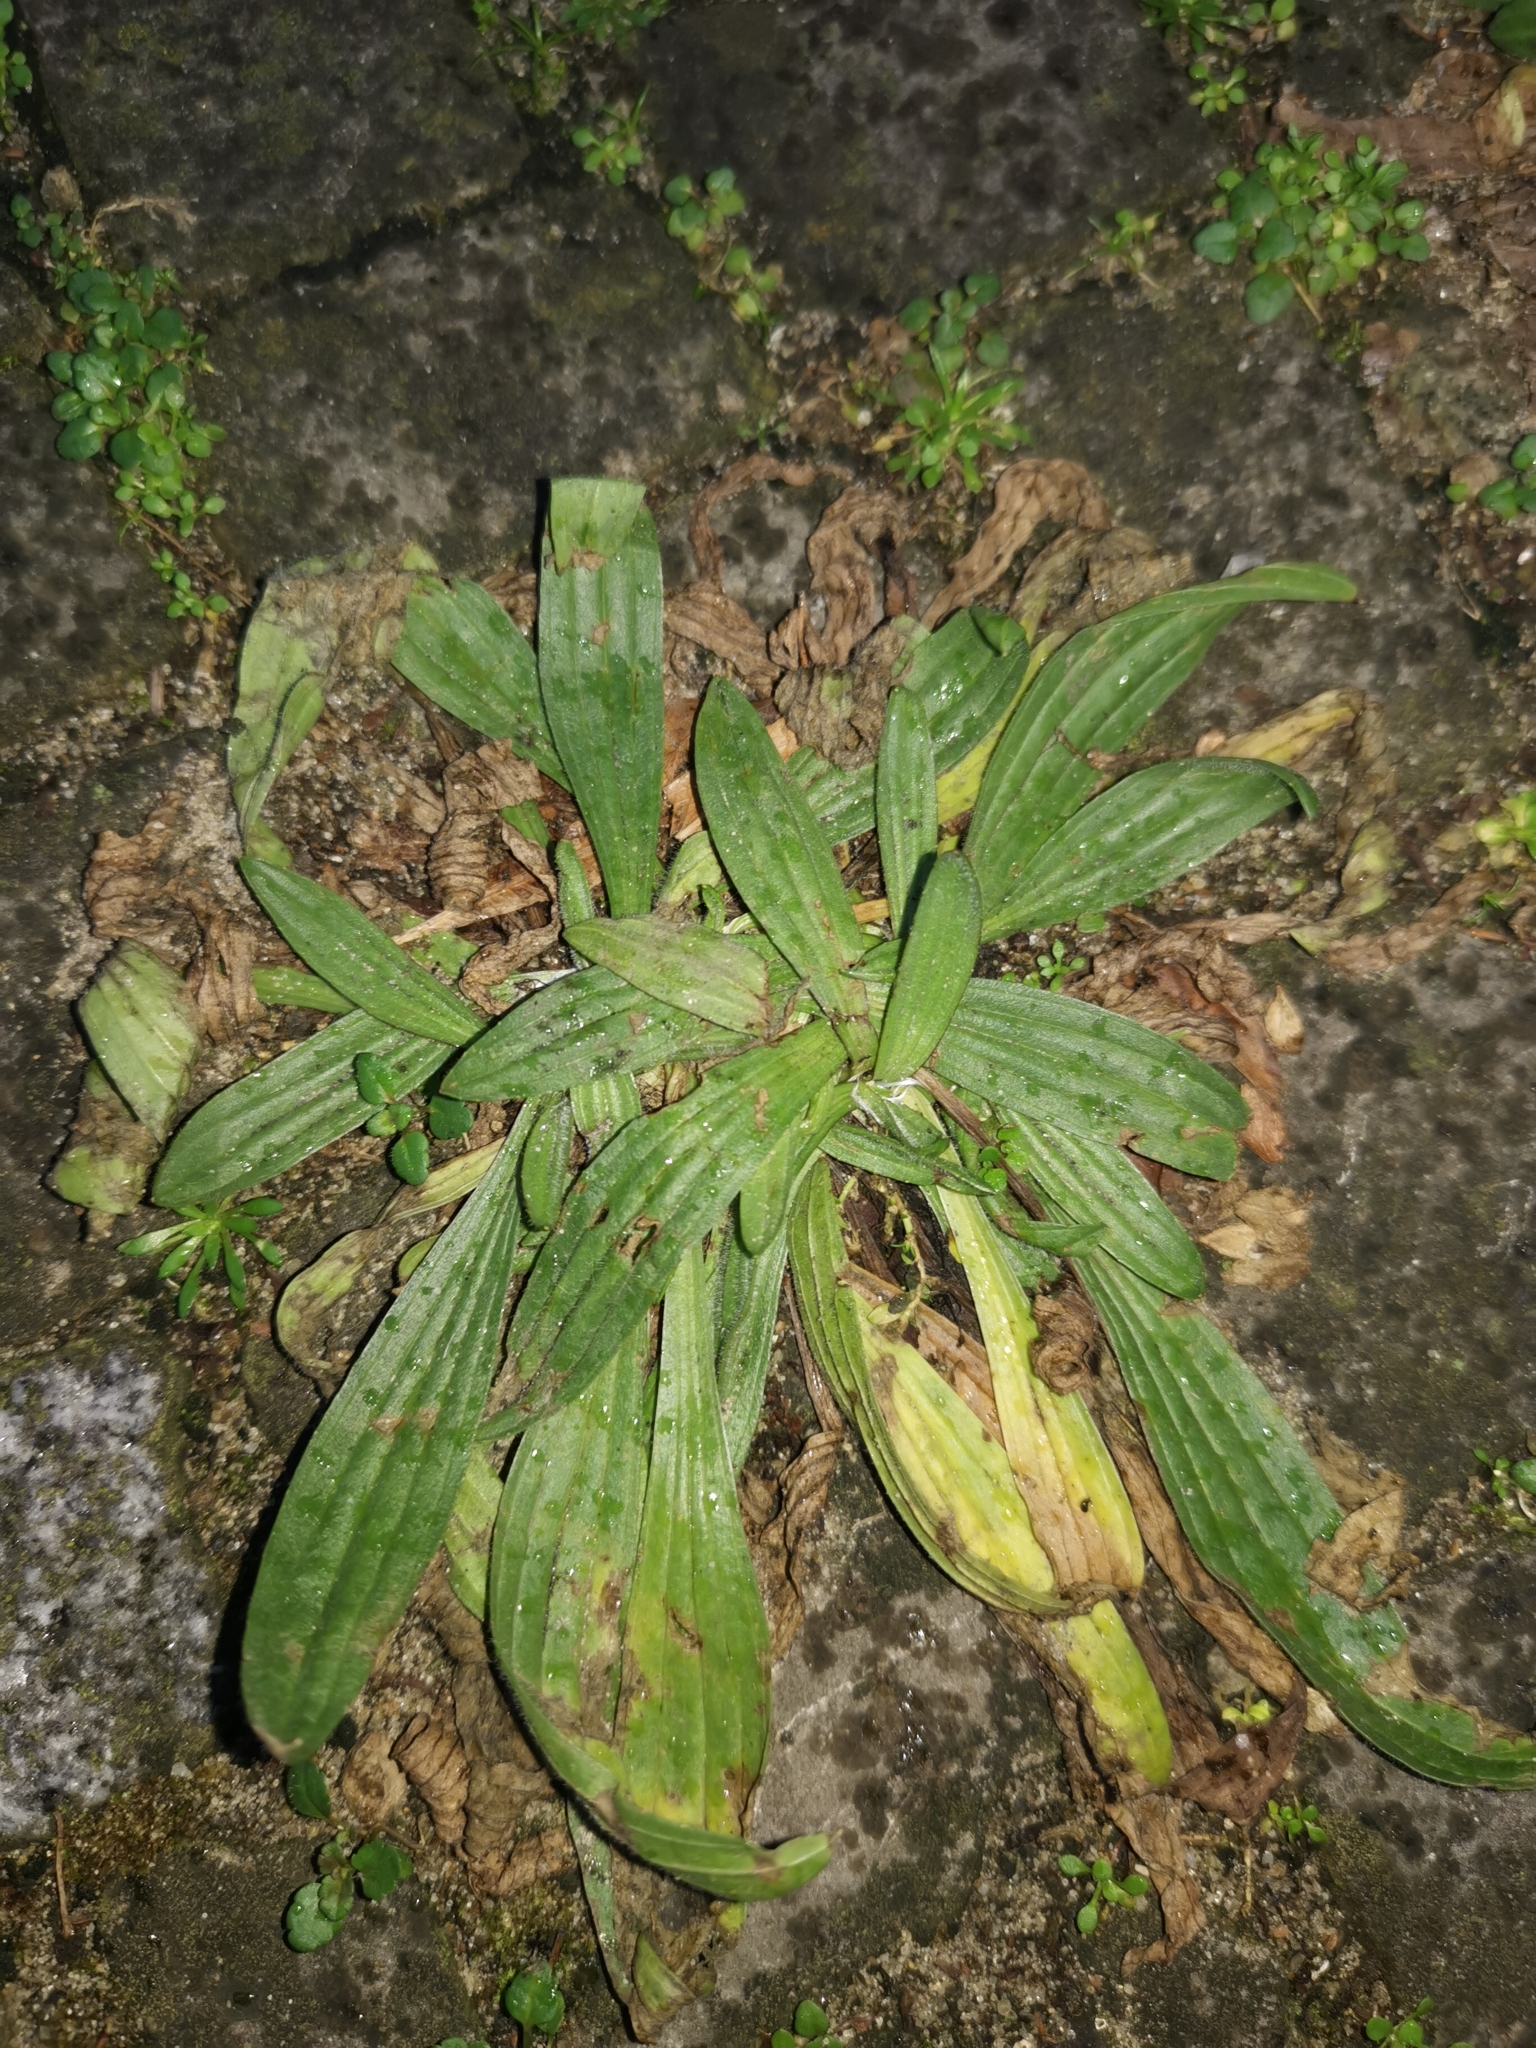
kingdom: Plantae
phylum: Tracheophyta
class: Magnoliopsida
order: Lamiales
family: Plantaginaceae
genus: Plantago
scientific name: Plantago lanceolata
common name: Ribwort plantain
